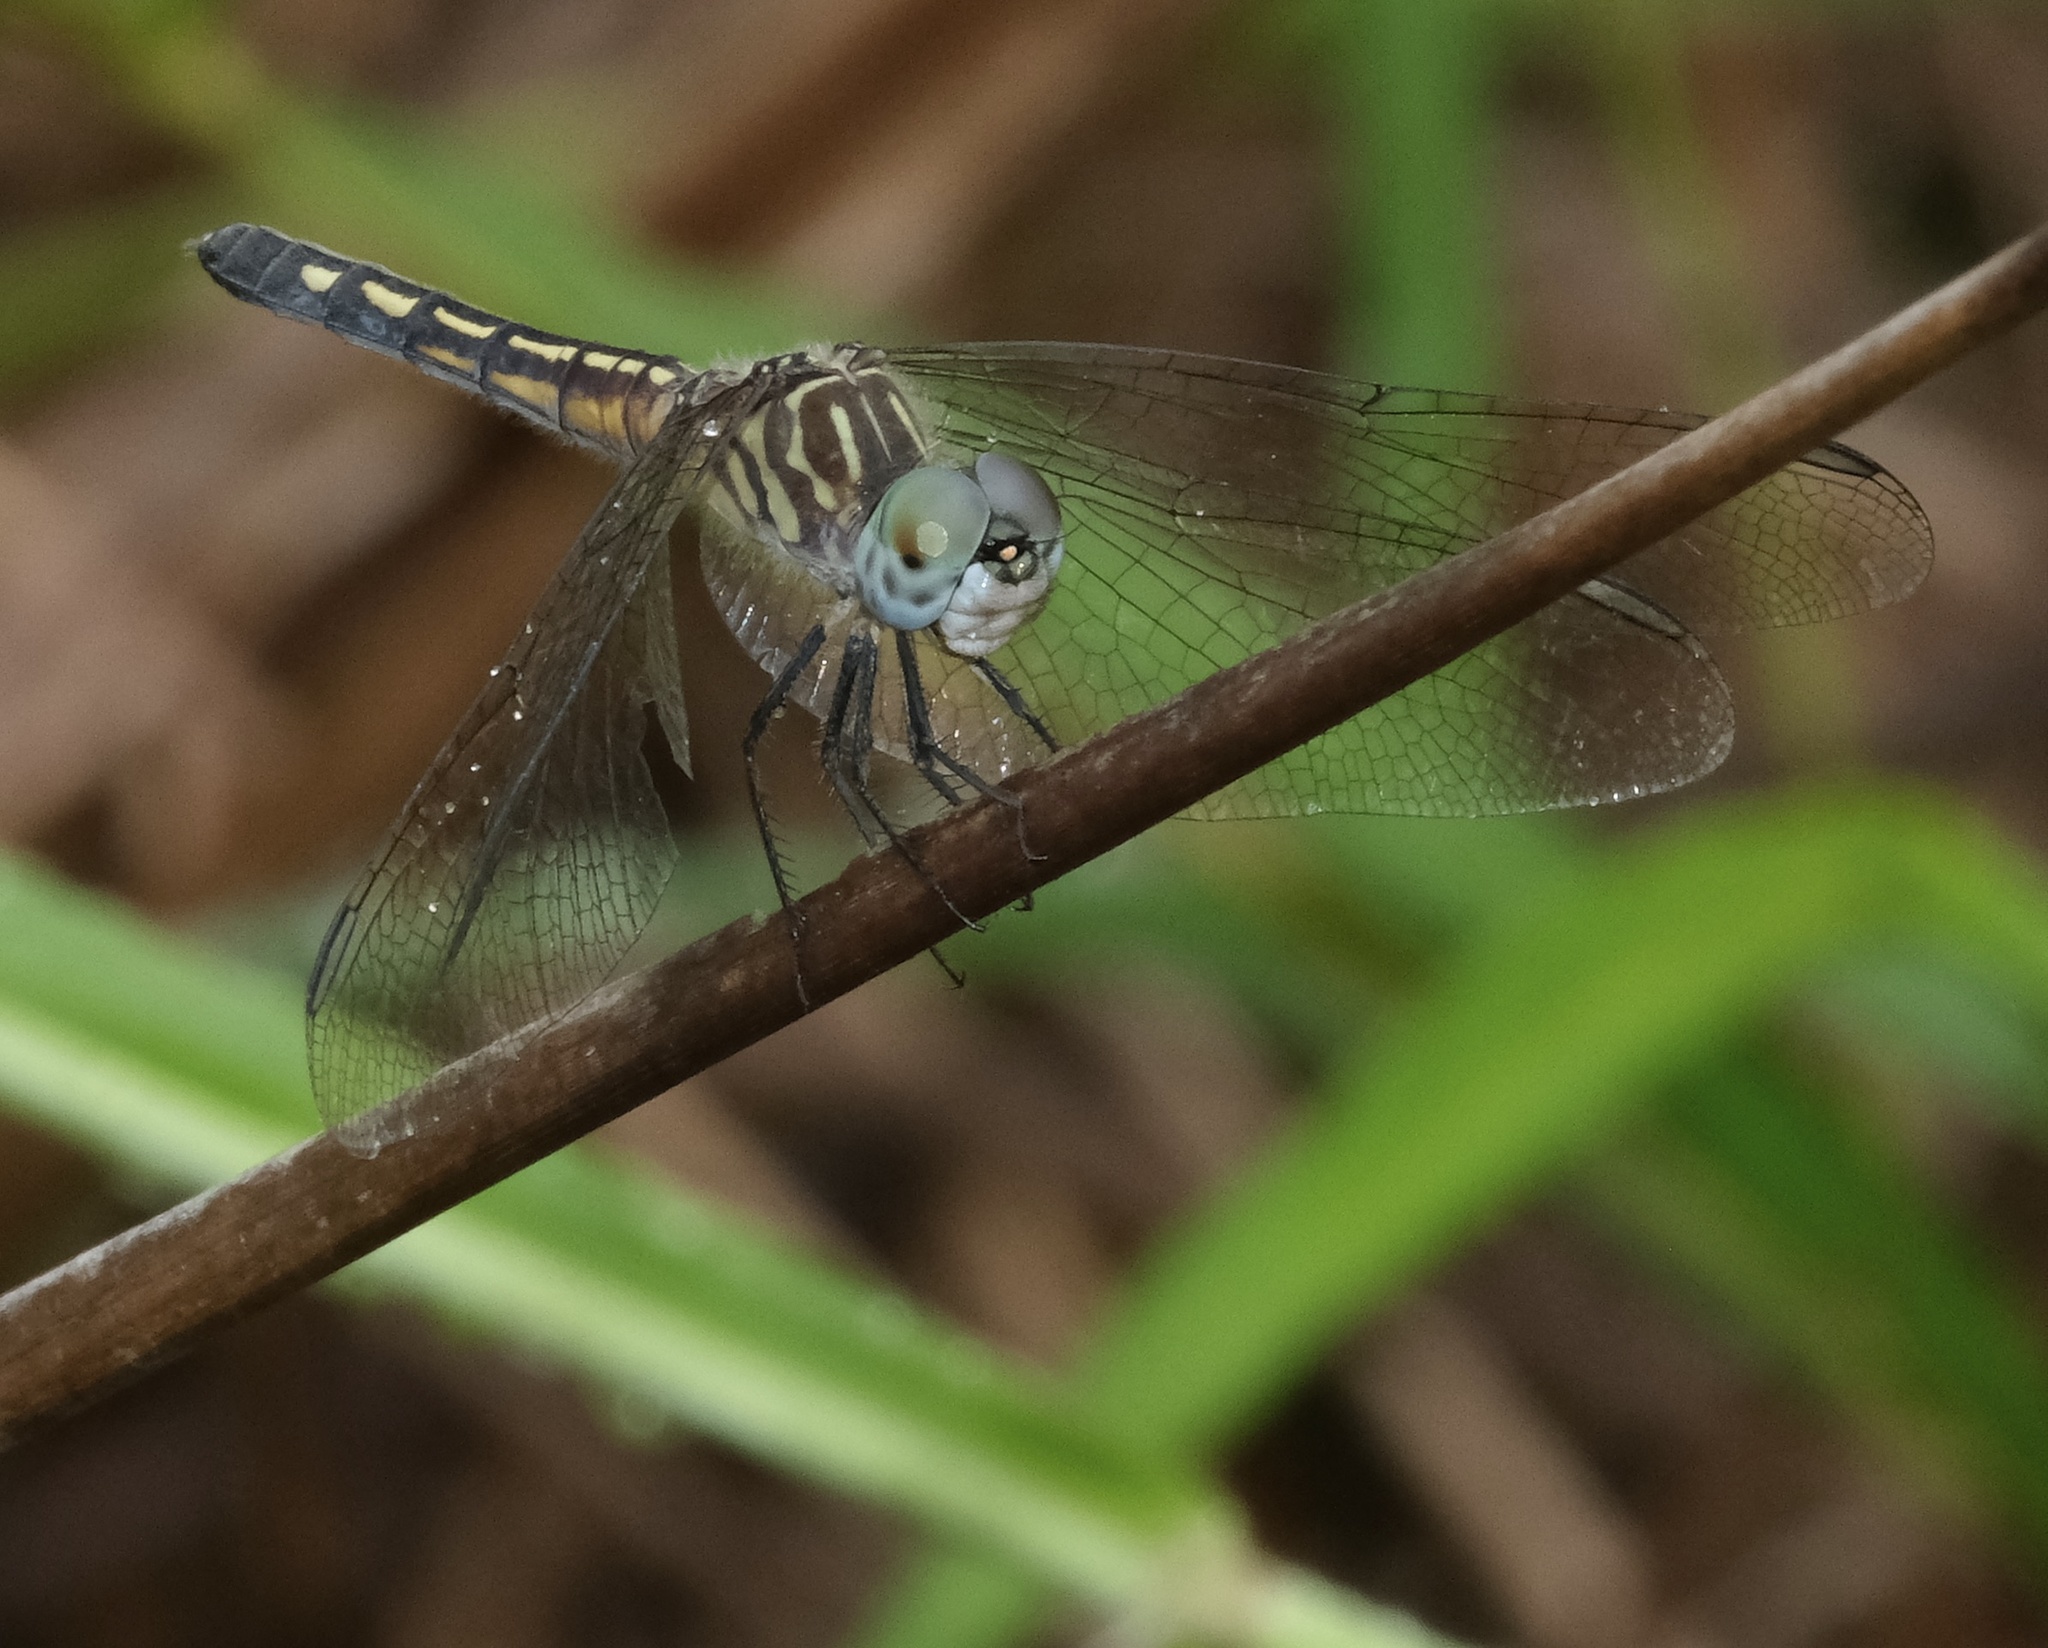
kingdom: Animalia
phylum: Arthropoda
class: Insecta
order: Odonata
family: Libellulidae
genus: Pachydiplax
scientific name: Pachydiplax longipennis
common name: Blue dasher
